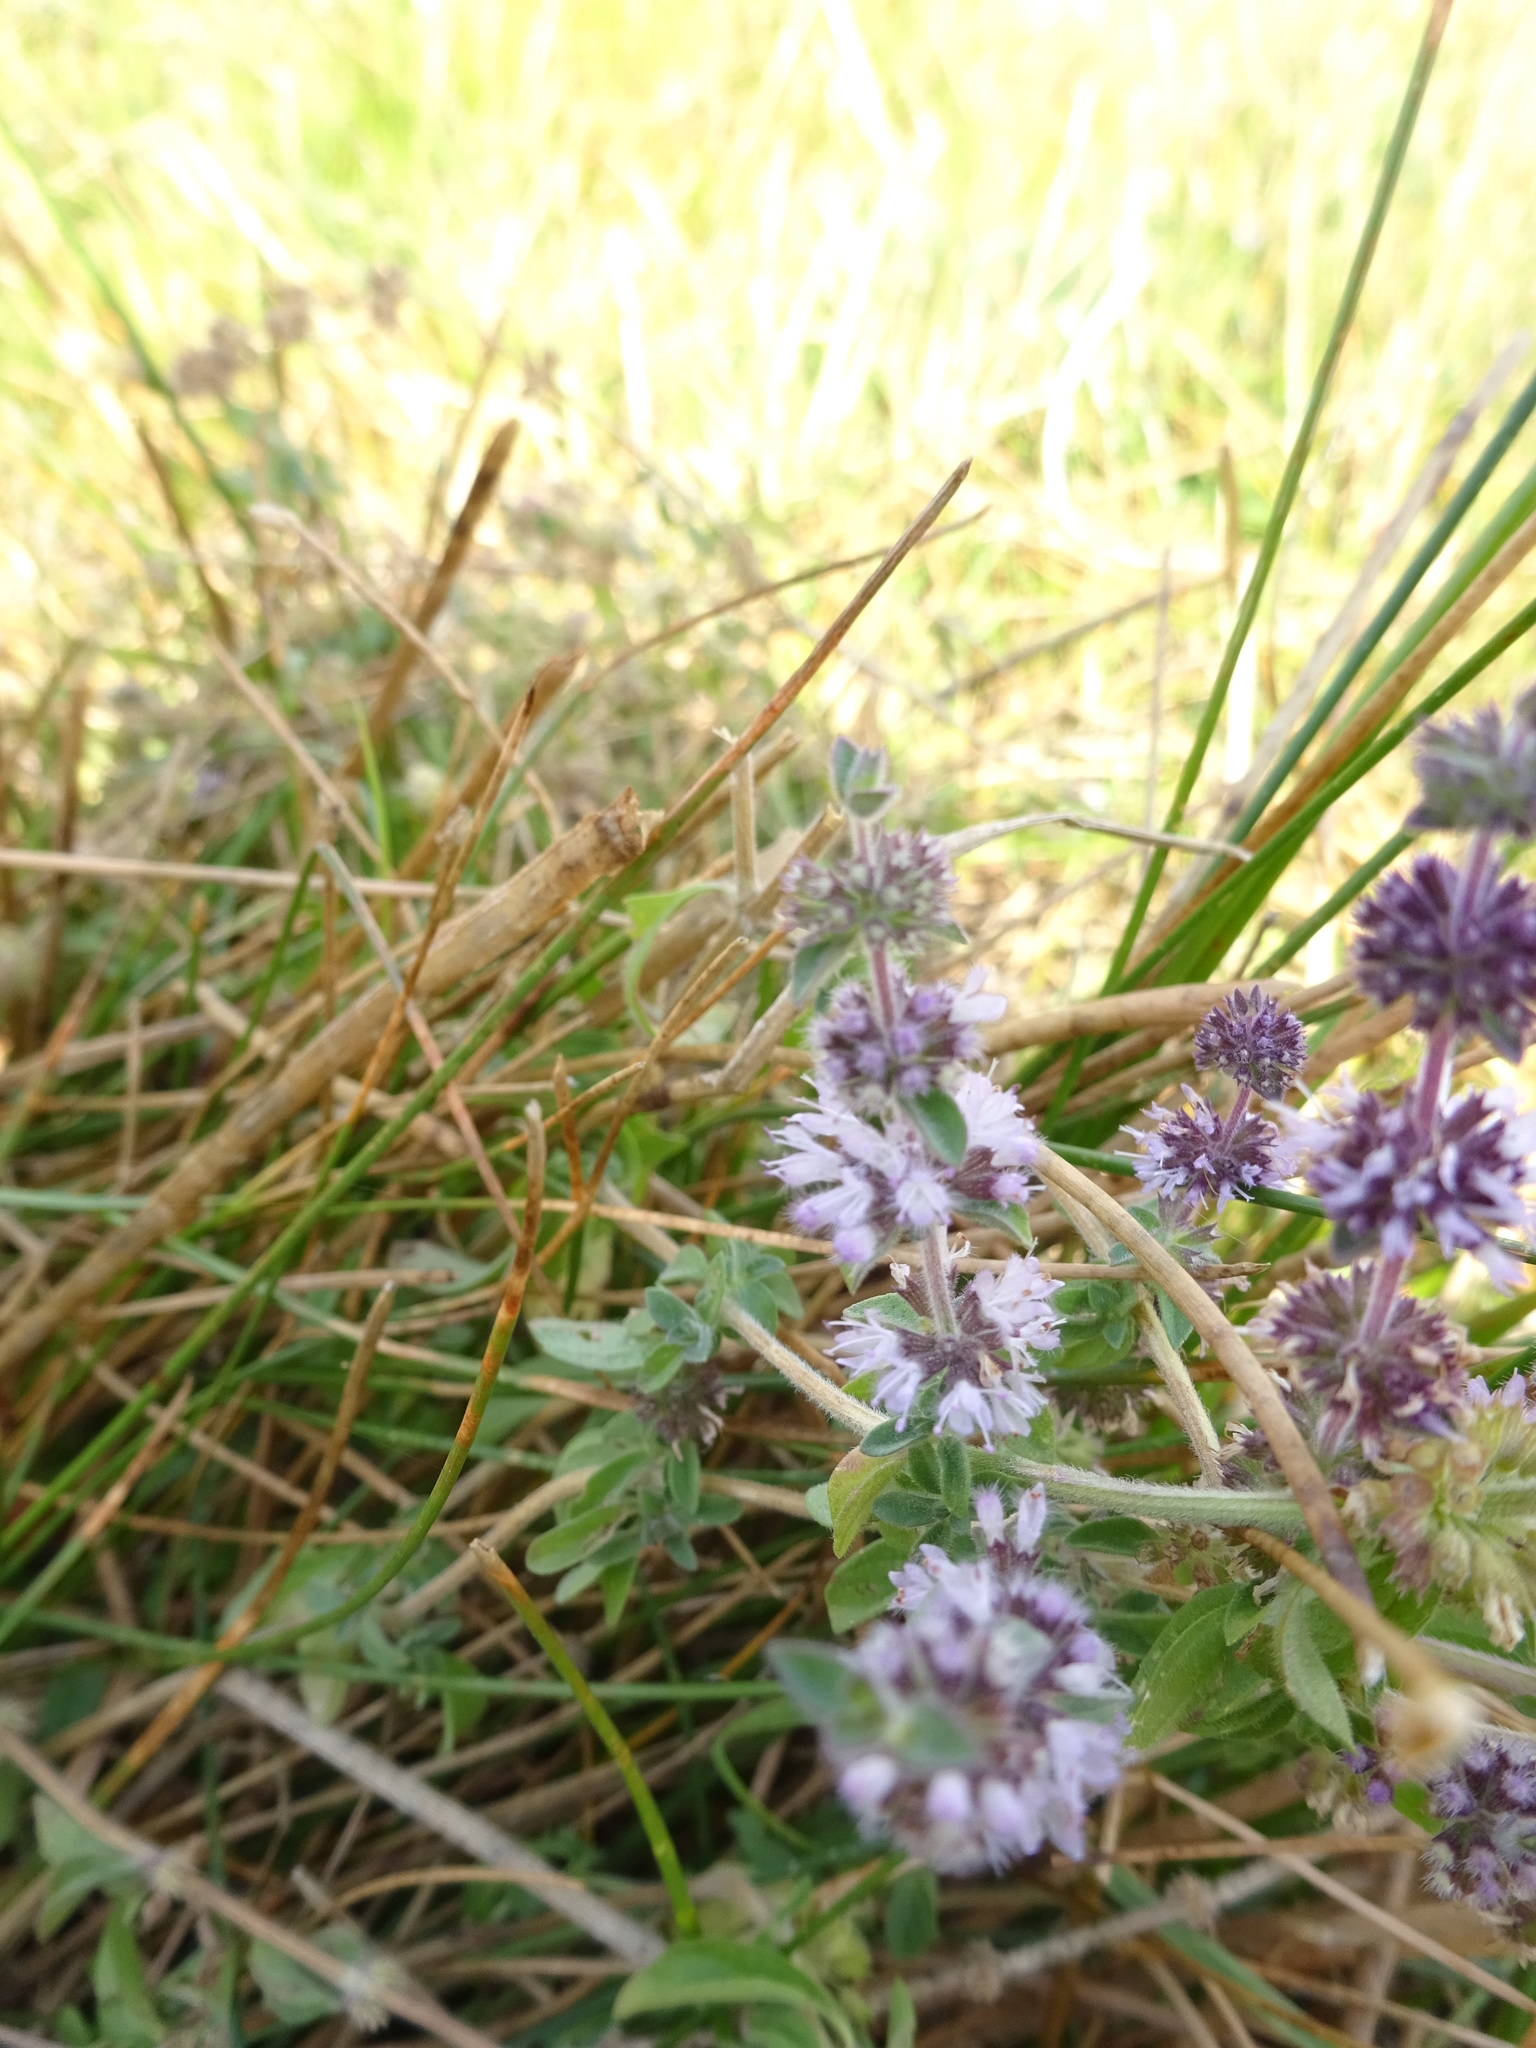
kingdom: Plantae
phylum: Tracheophyta
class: Magnoliopsida
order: Lamiales
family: Lamiaceae
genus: Mentha
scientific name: Mentha pulegium
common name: Pennyroyal
